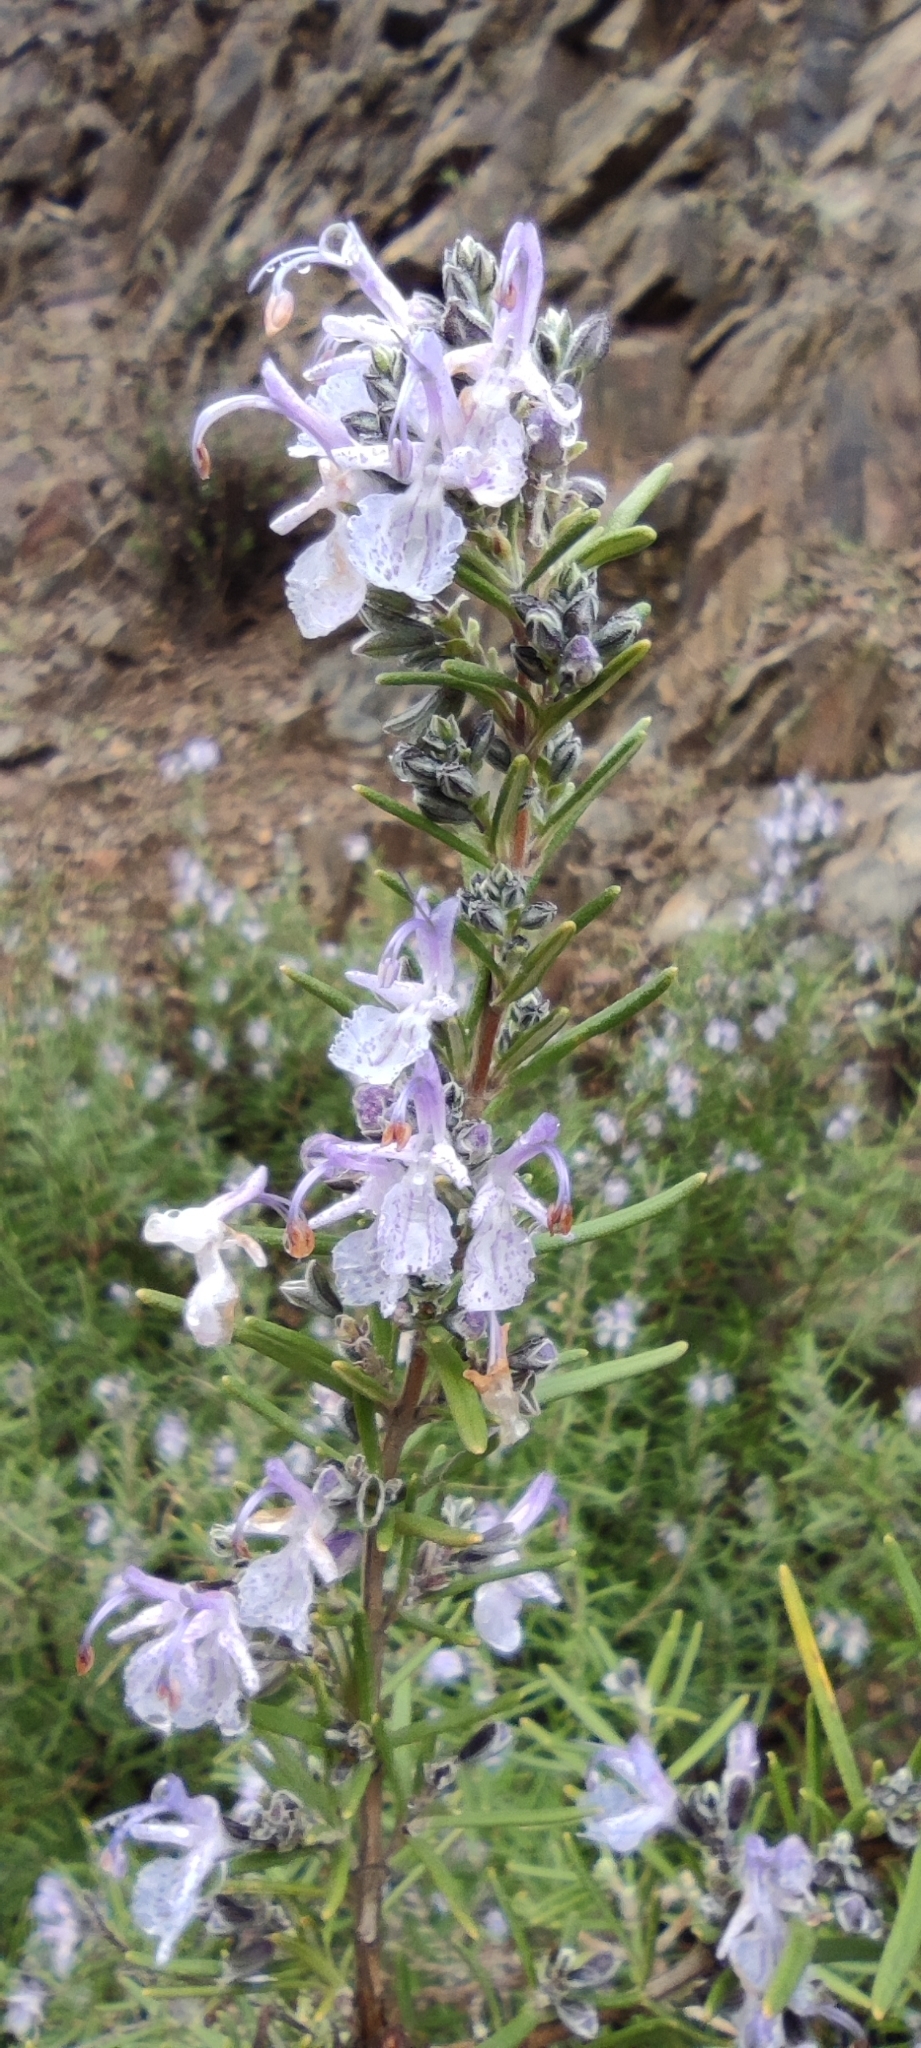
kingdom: Plantae
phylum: Tracheophyta
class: Magnoliopsida
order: Lamiales
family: Lamiaceae
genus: Salvia
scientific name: Salvia rosmarinus
